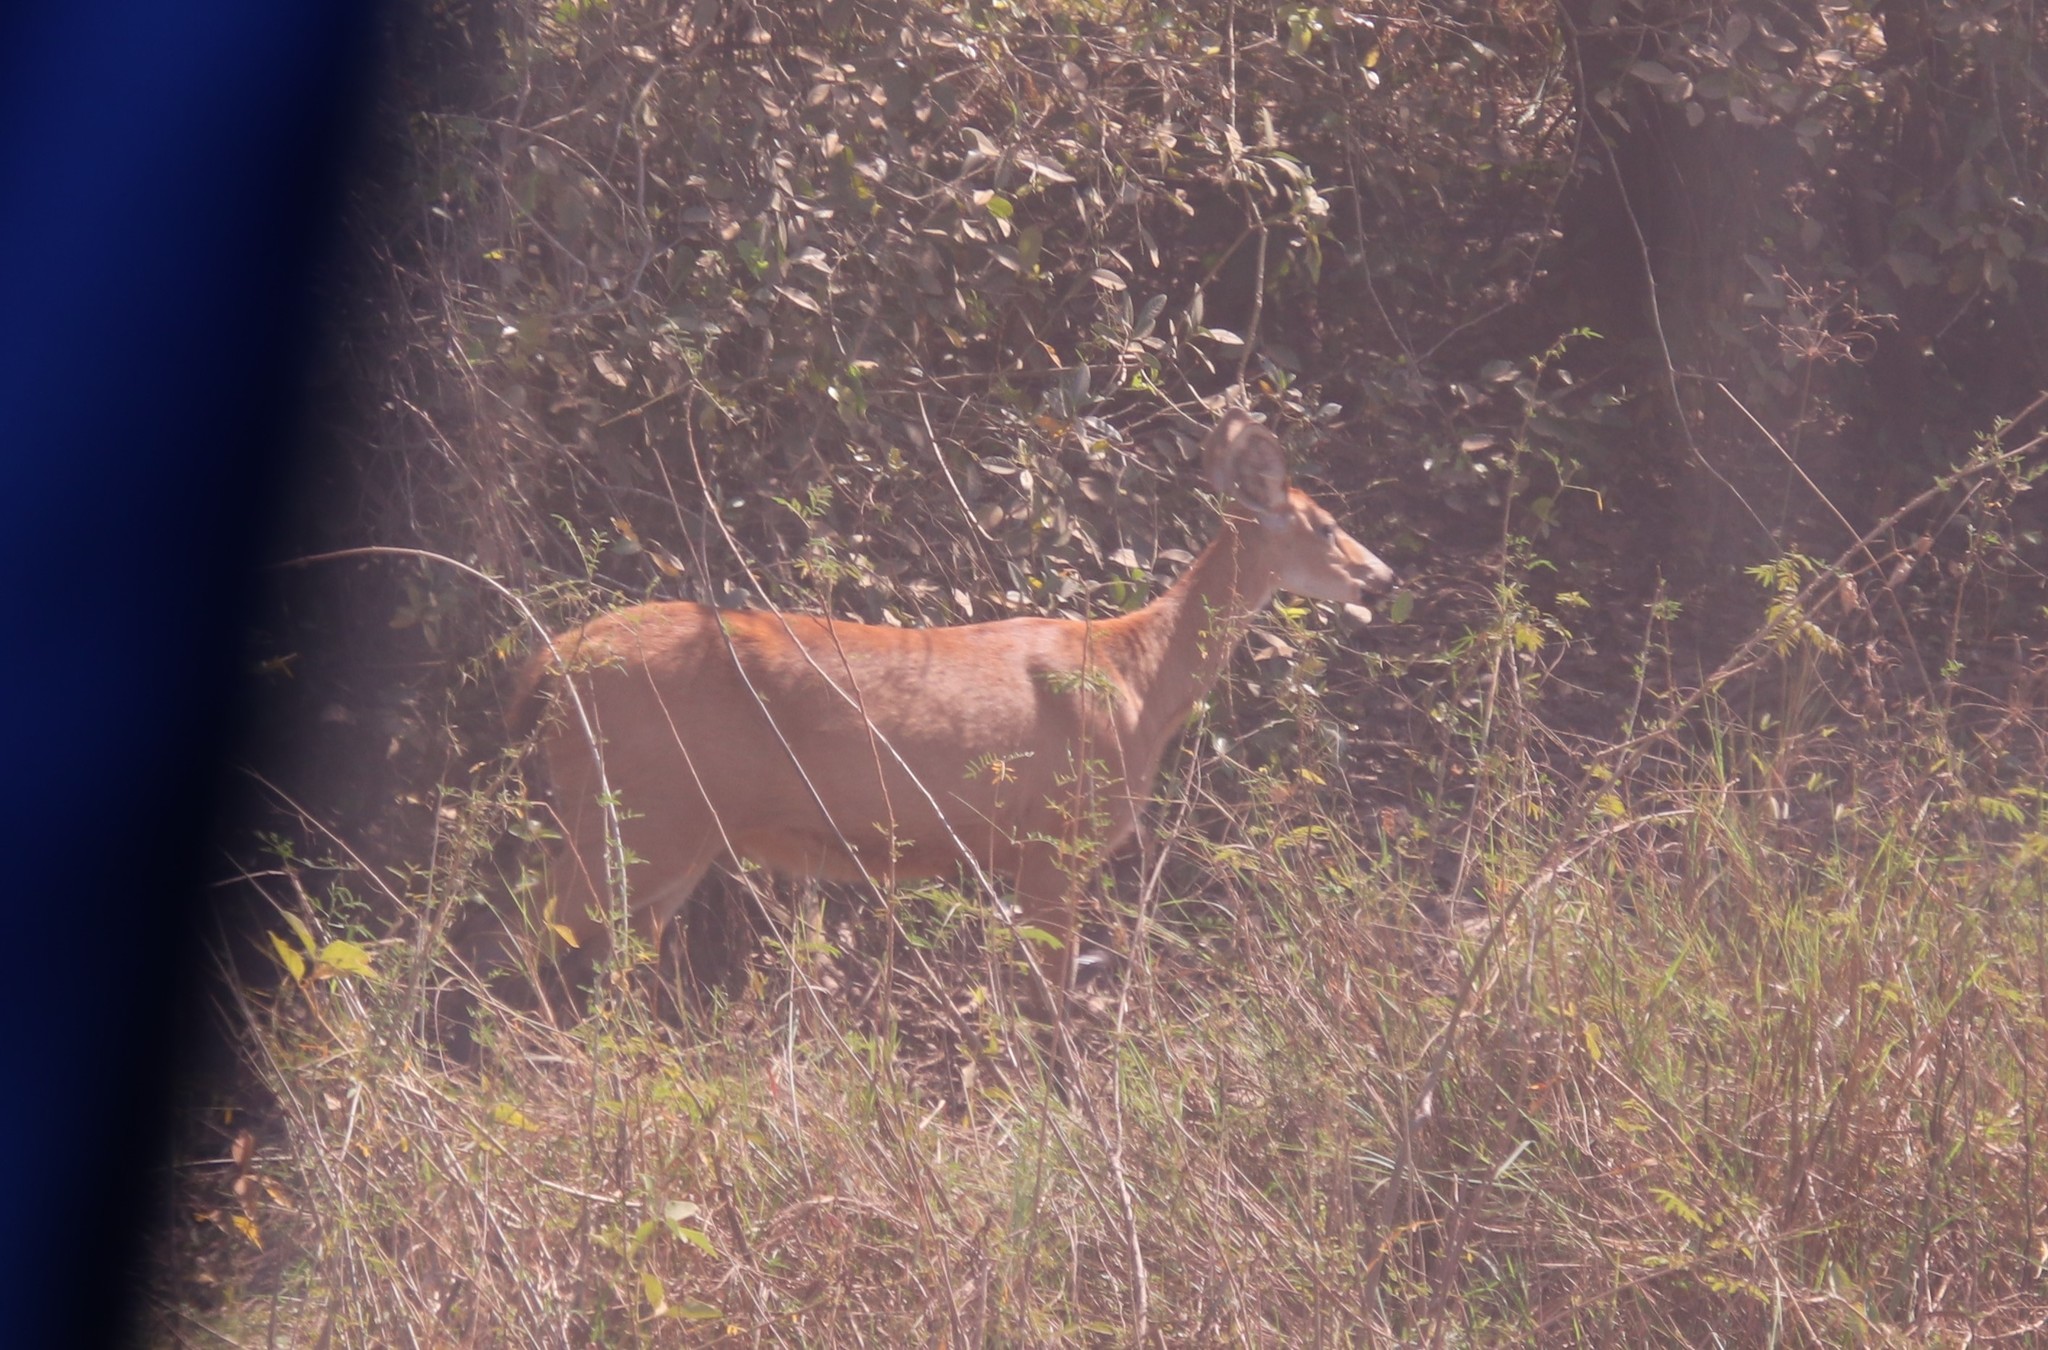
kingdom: Animalia
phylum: Chordata
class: Mammalia
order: Artiodactyla
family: Cervidae
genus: Blastocerus
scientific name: Blastocerus dichotomus
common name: Marsh deer
